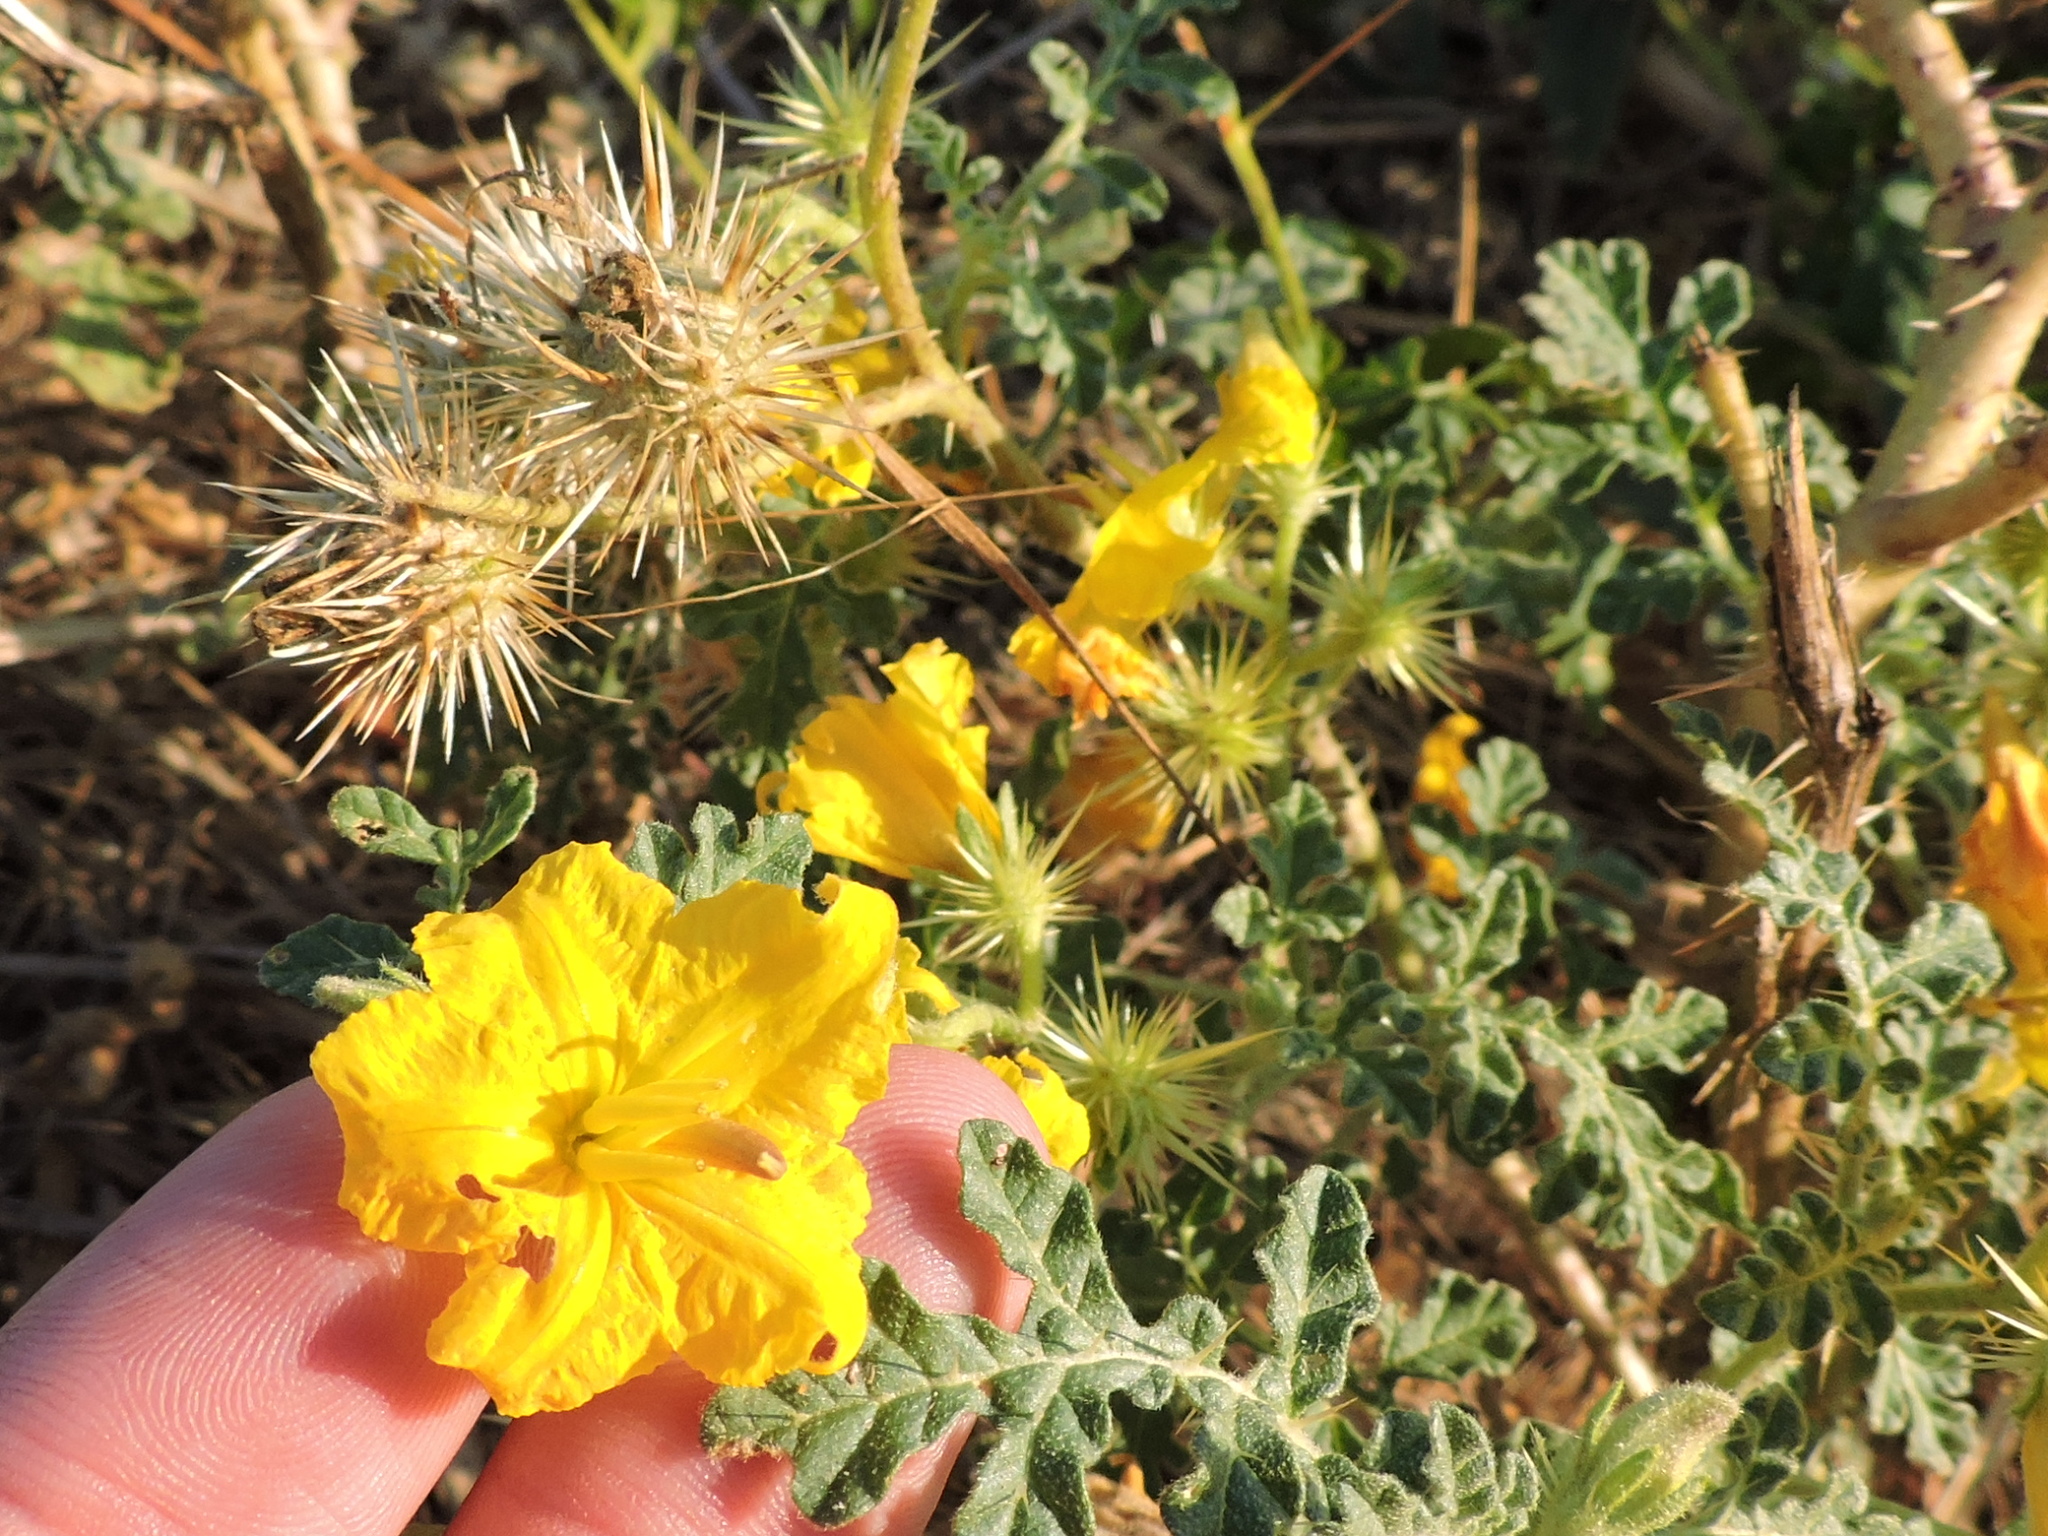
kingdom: Plantae
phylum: Tracheophyta
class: Magnoliopsida
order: Solanales
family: Solanaceae
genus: Solanum
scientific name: Solanum angustifolium
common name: Buffalobur nightshade
